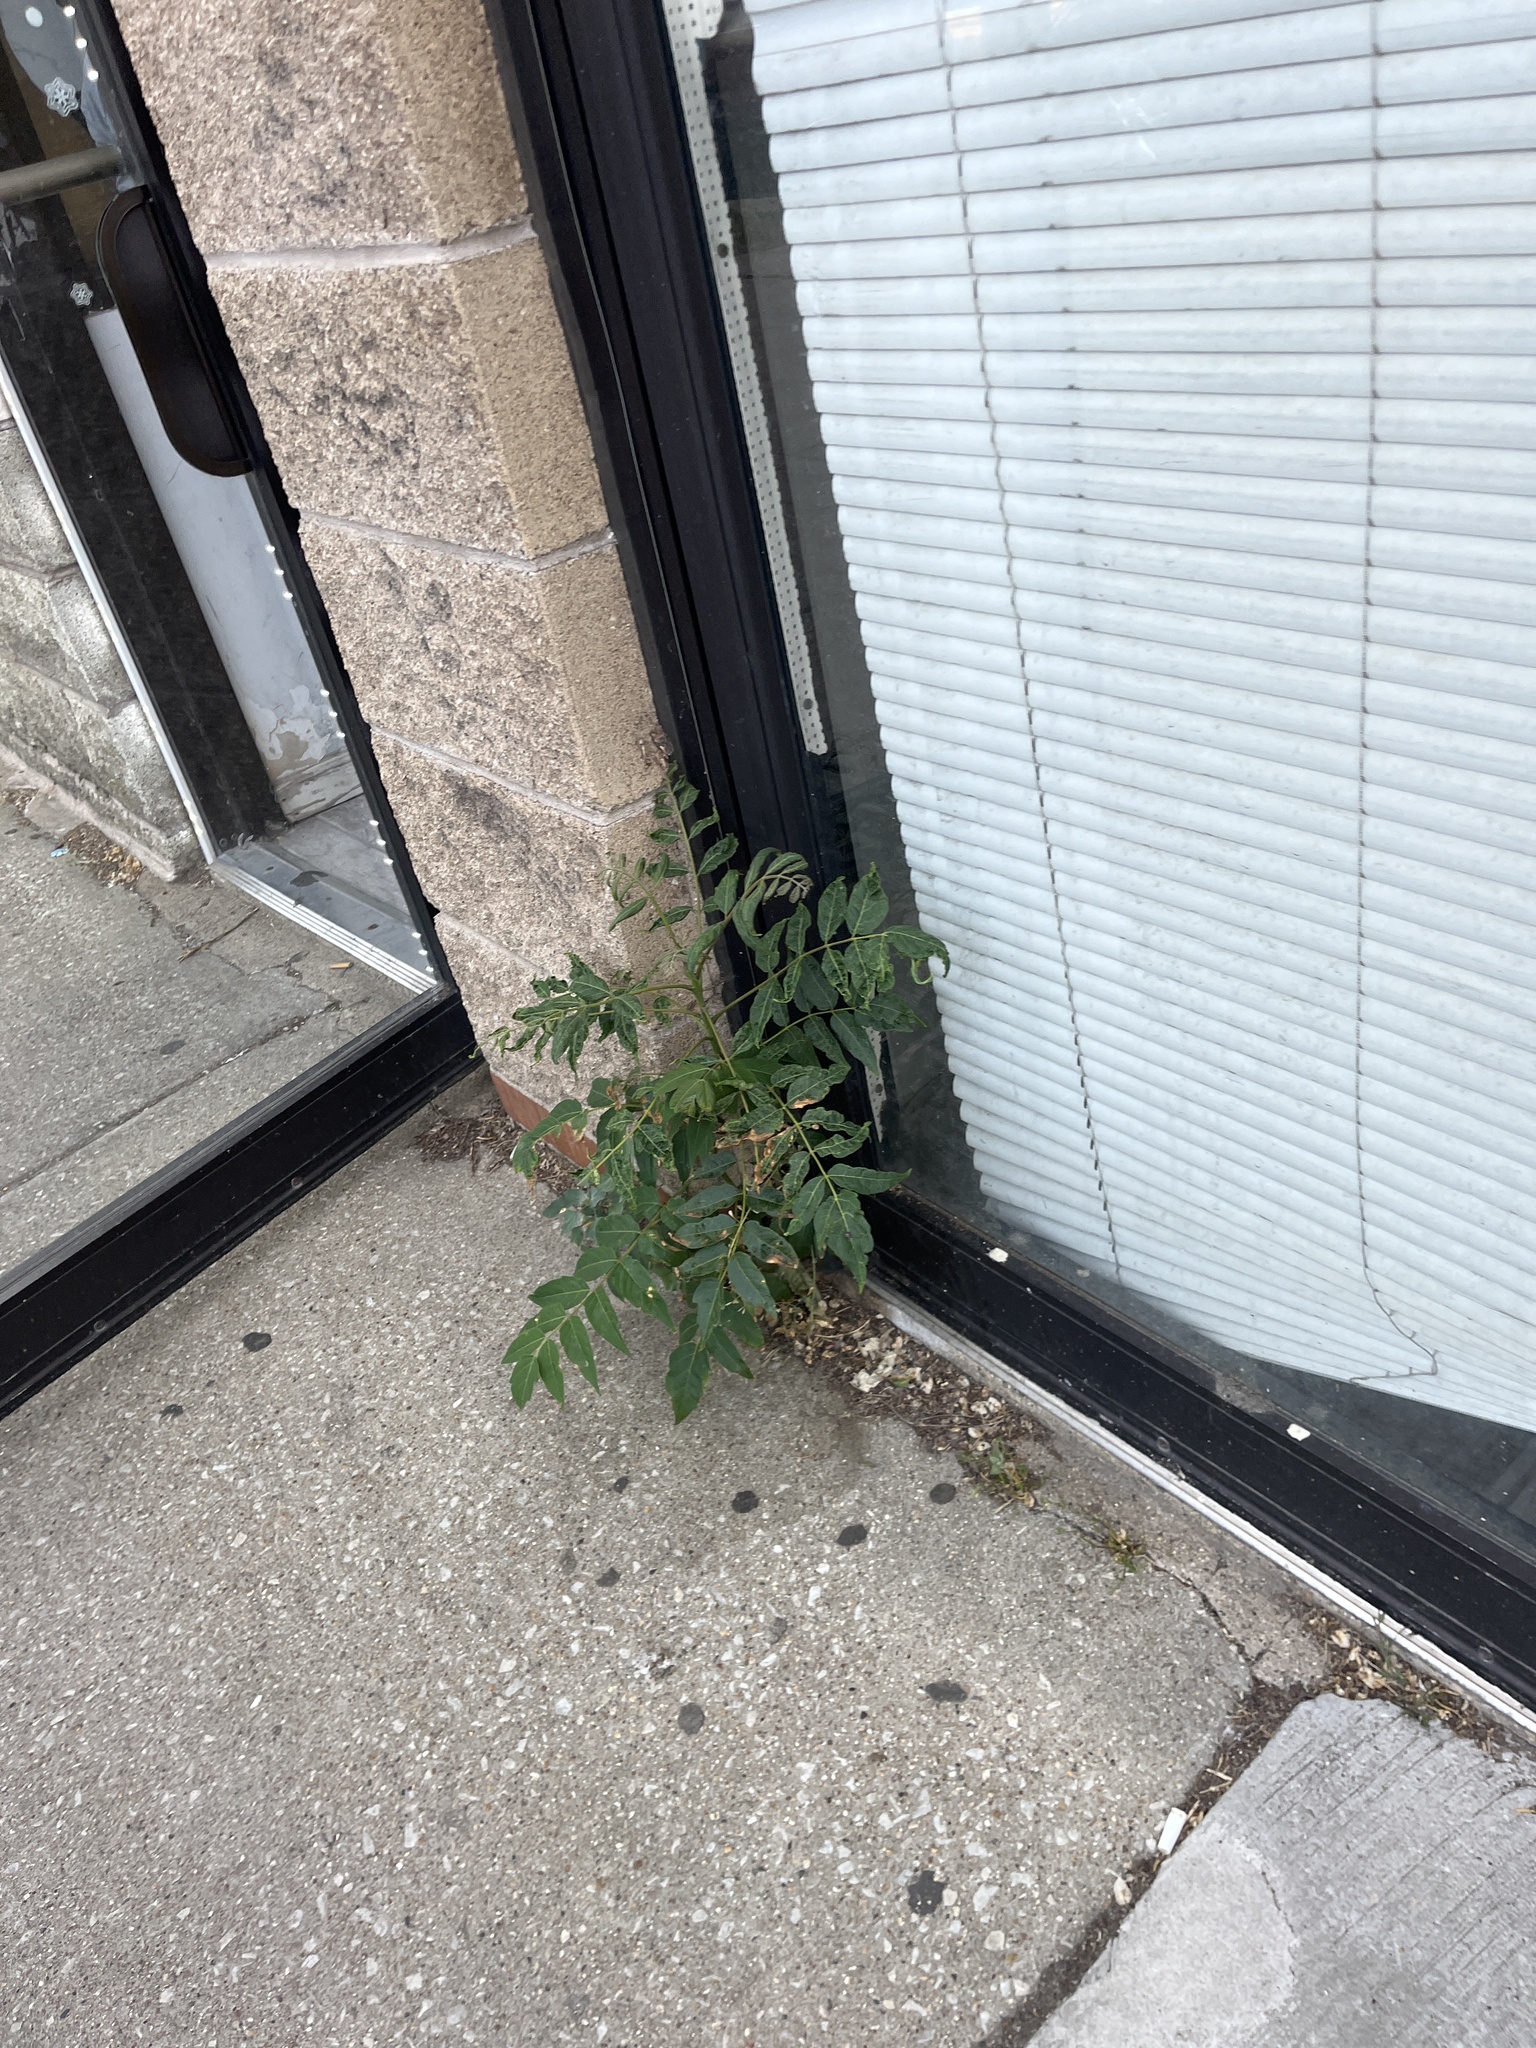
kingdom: Plantae
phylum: Tracheophyta
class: Magnoliopsida
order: Sapindales
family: Simaroubaceae
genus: Ailanthus
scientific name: Ailanthus altissima
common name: Tree-of-heaven
